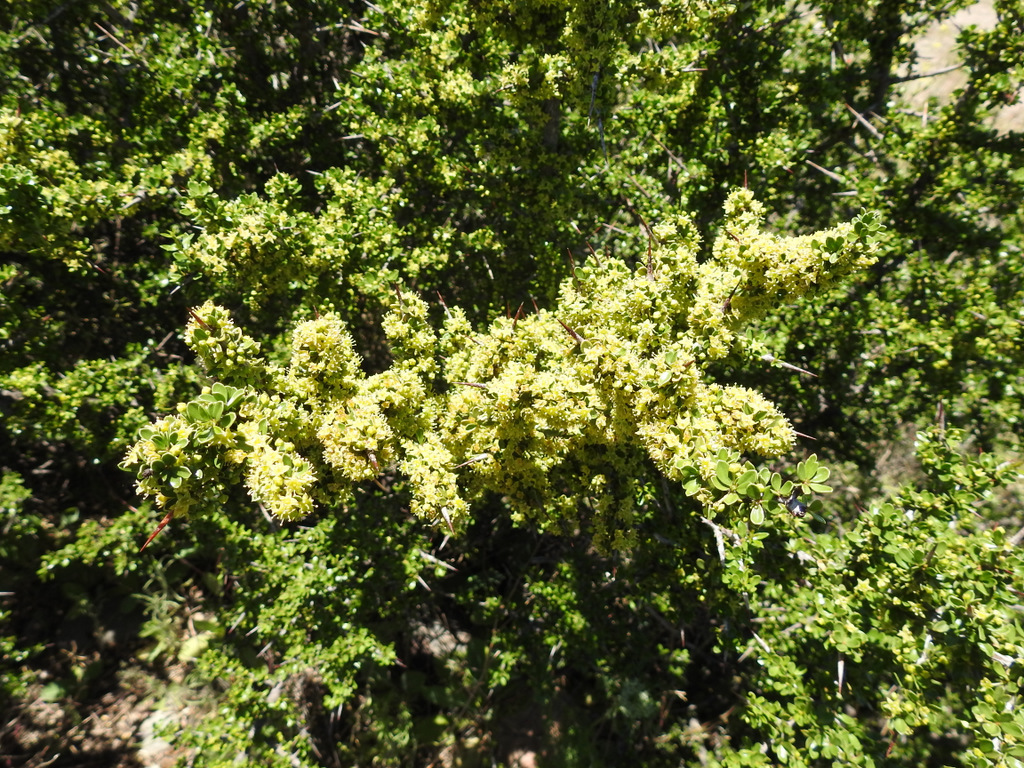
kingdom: Plantae
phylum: Tracheophyta
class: Magnoliopsida
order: Rosales
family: Rhamnaceae
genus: Condalia
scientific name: Condalia microphylla
